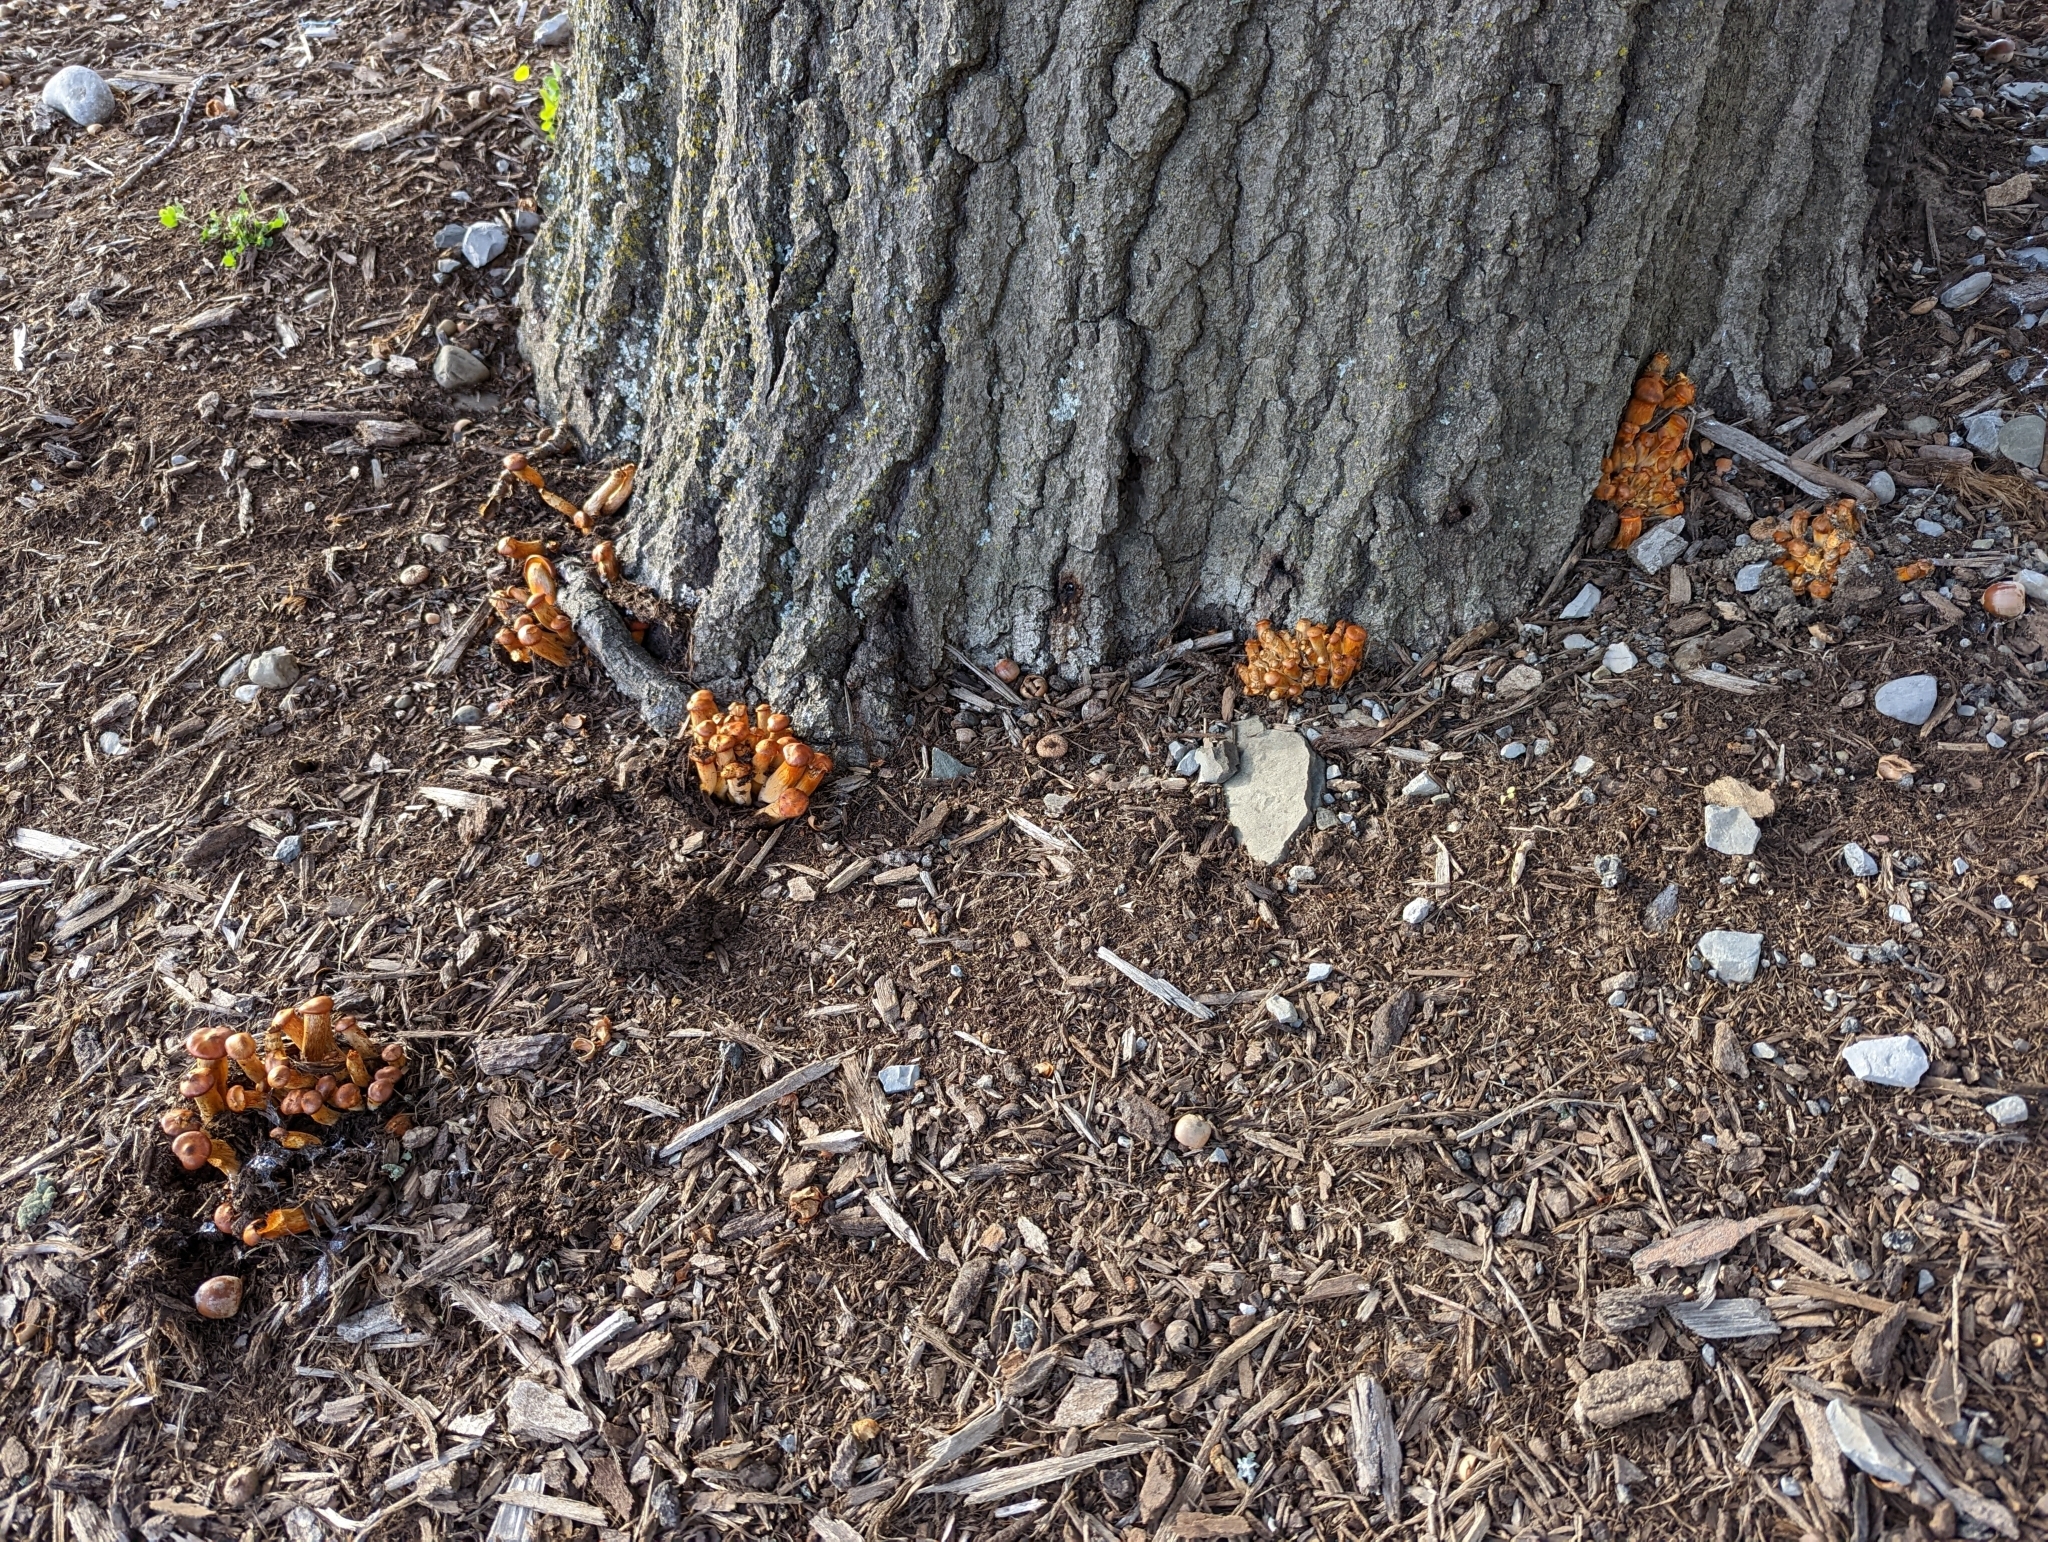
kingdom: Fungi
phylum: Basidiomycota
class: Agaricomycetes
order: Agaricales
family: Omphalotaceae
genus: Omphalotus
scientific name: Omphalotus illudens
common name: Jack o lantern
